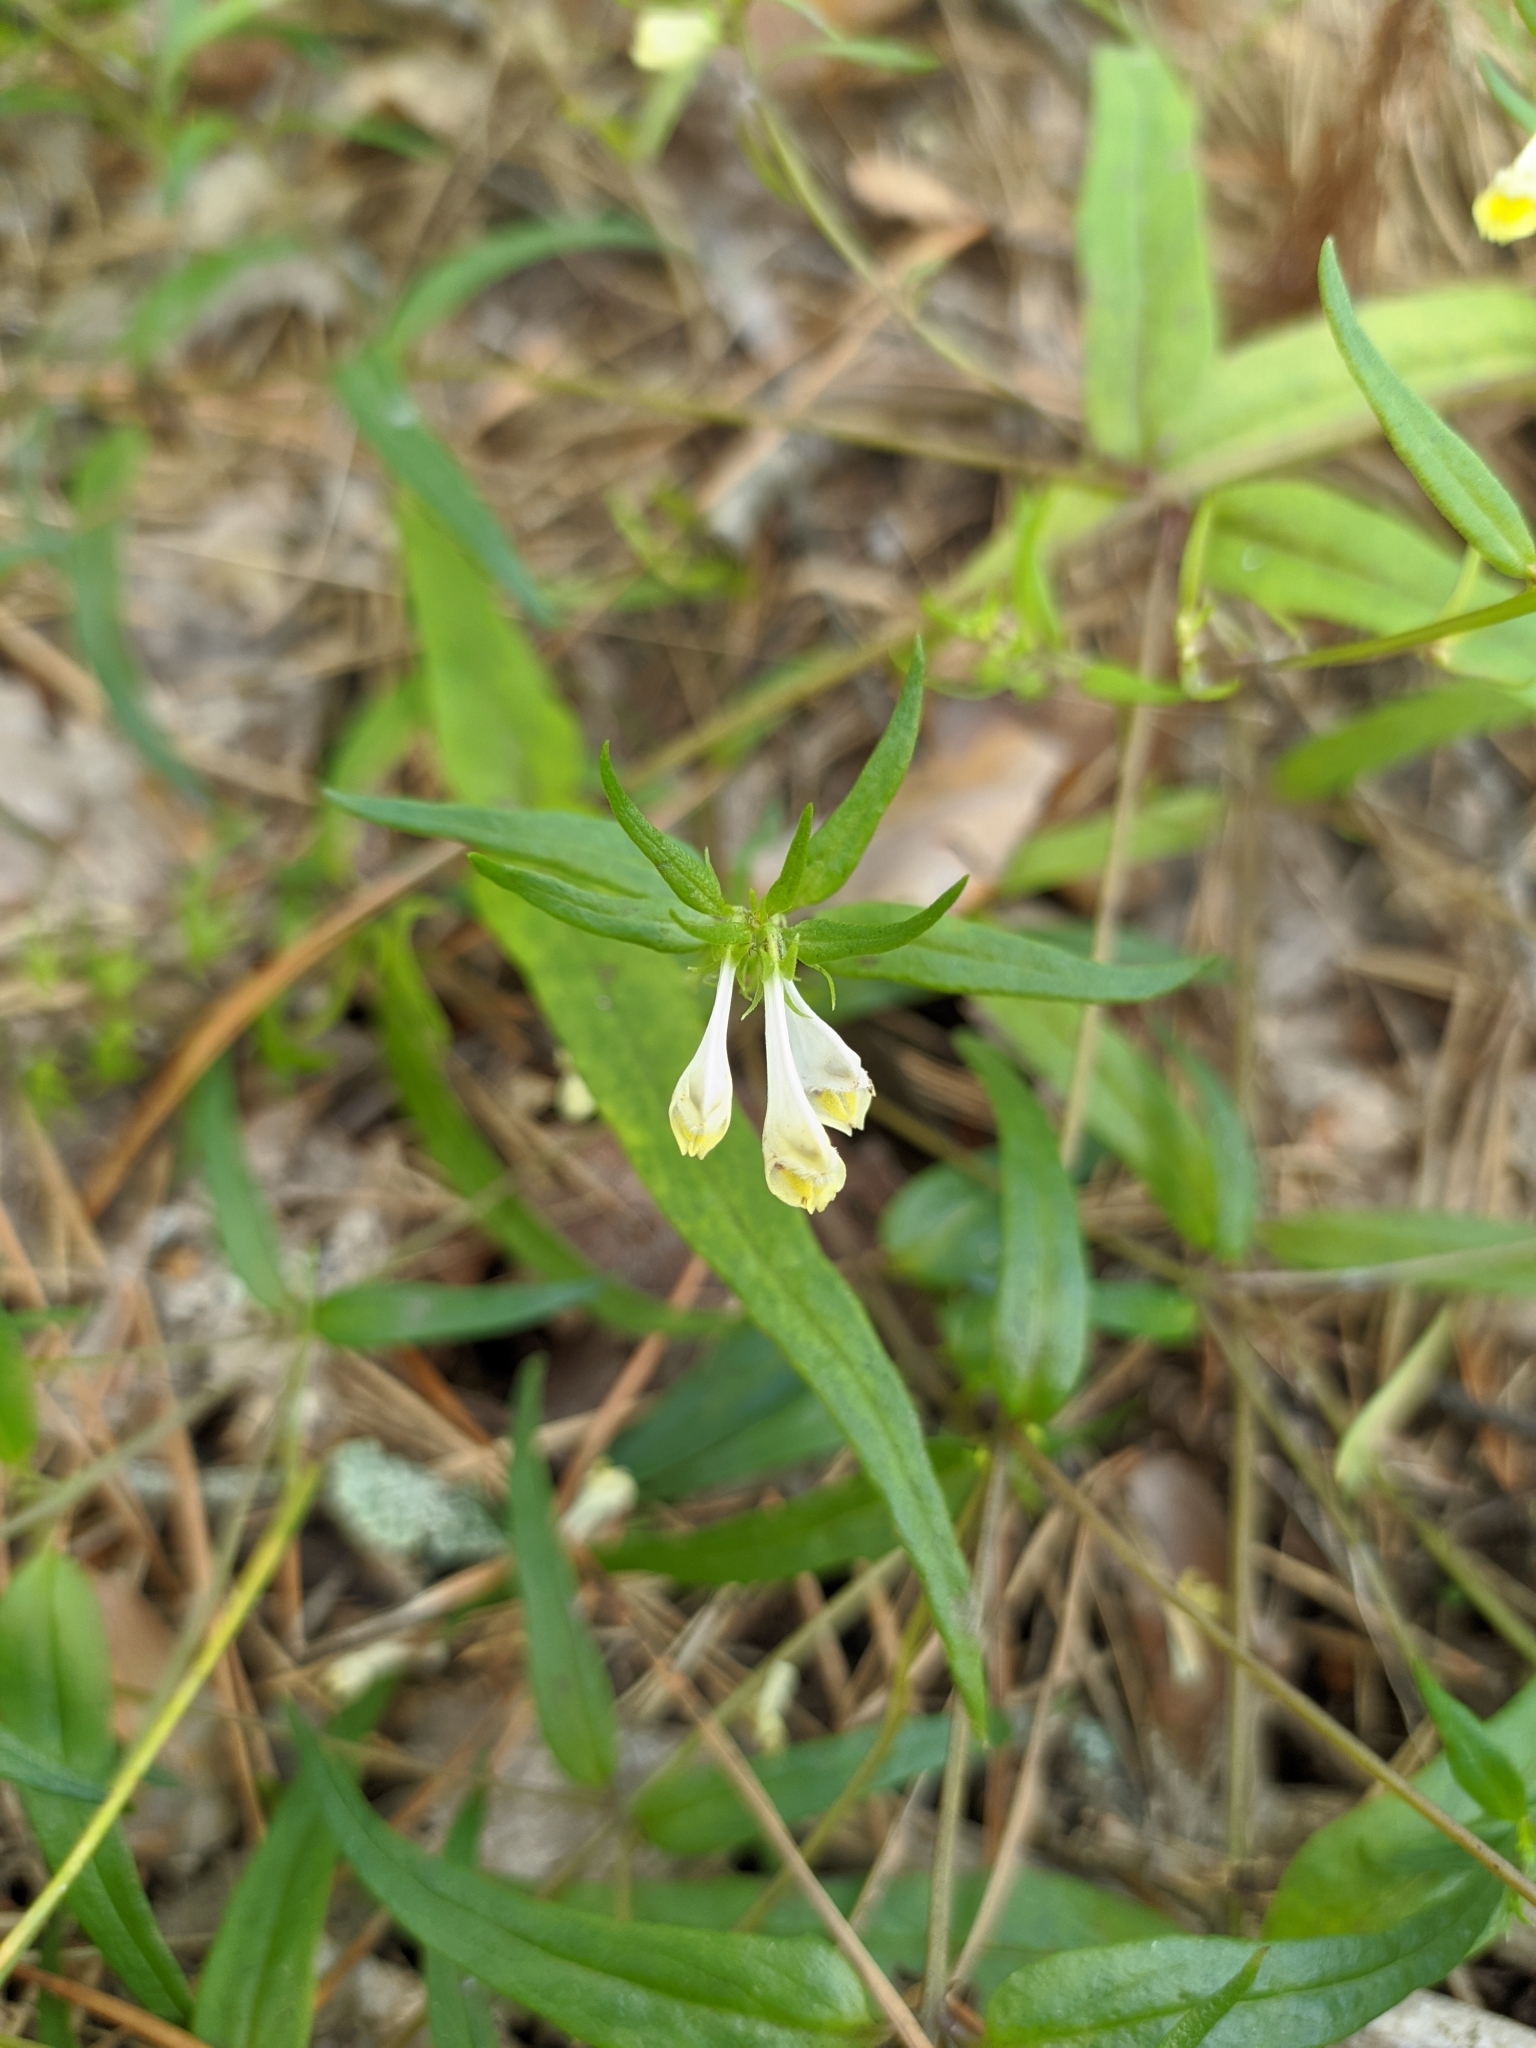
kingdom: Plantae
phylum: Tracheophyta
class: Magnoliopsida
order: Lamiales
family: Orobanchaceae
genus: Melampyrum
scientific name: Melampyrum pratense
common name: Common cow-wheat
